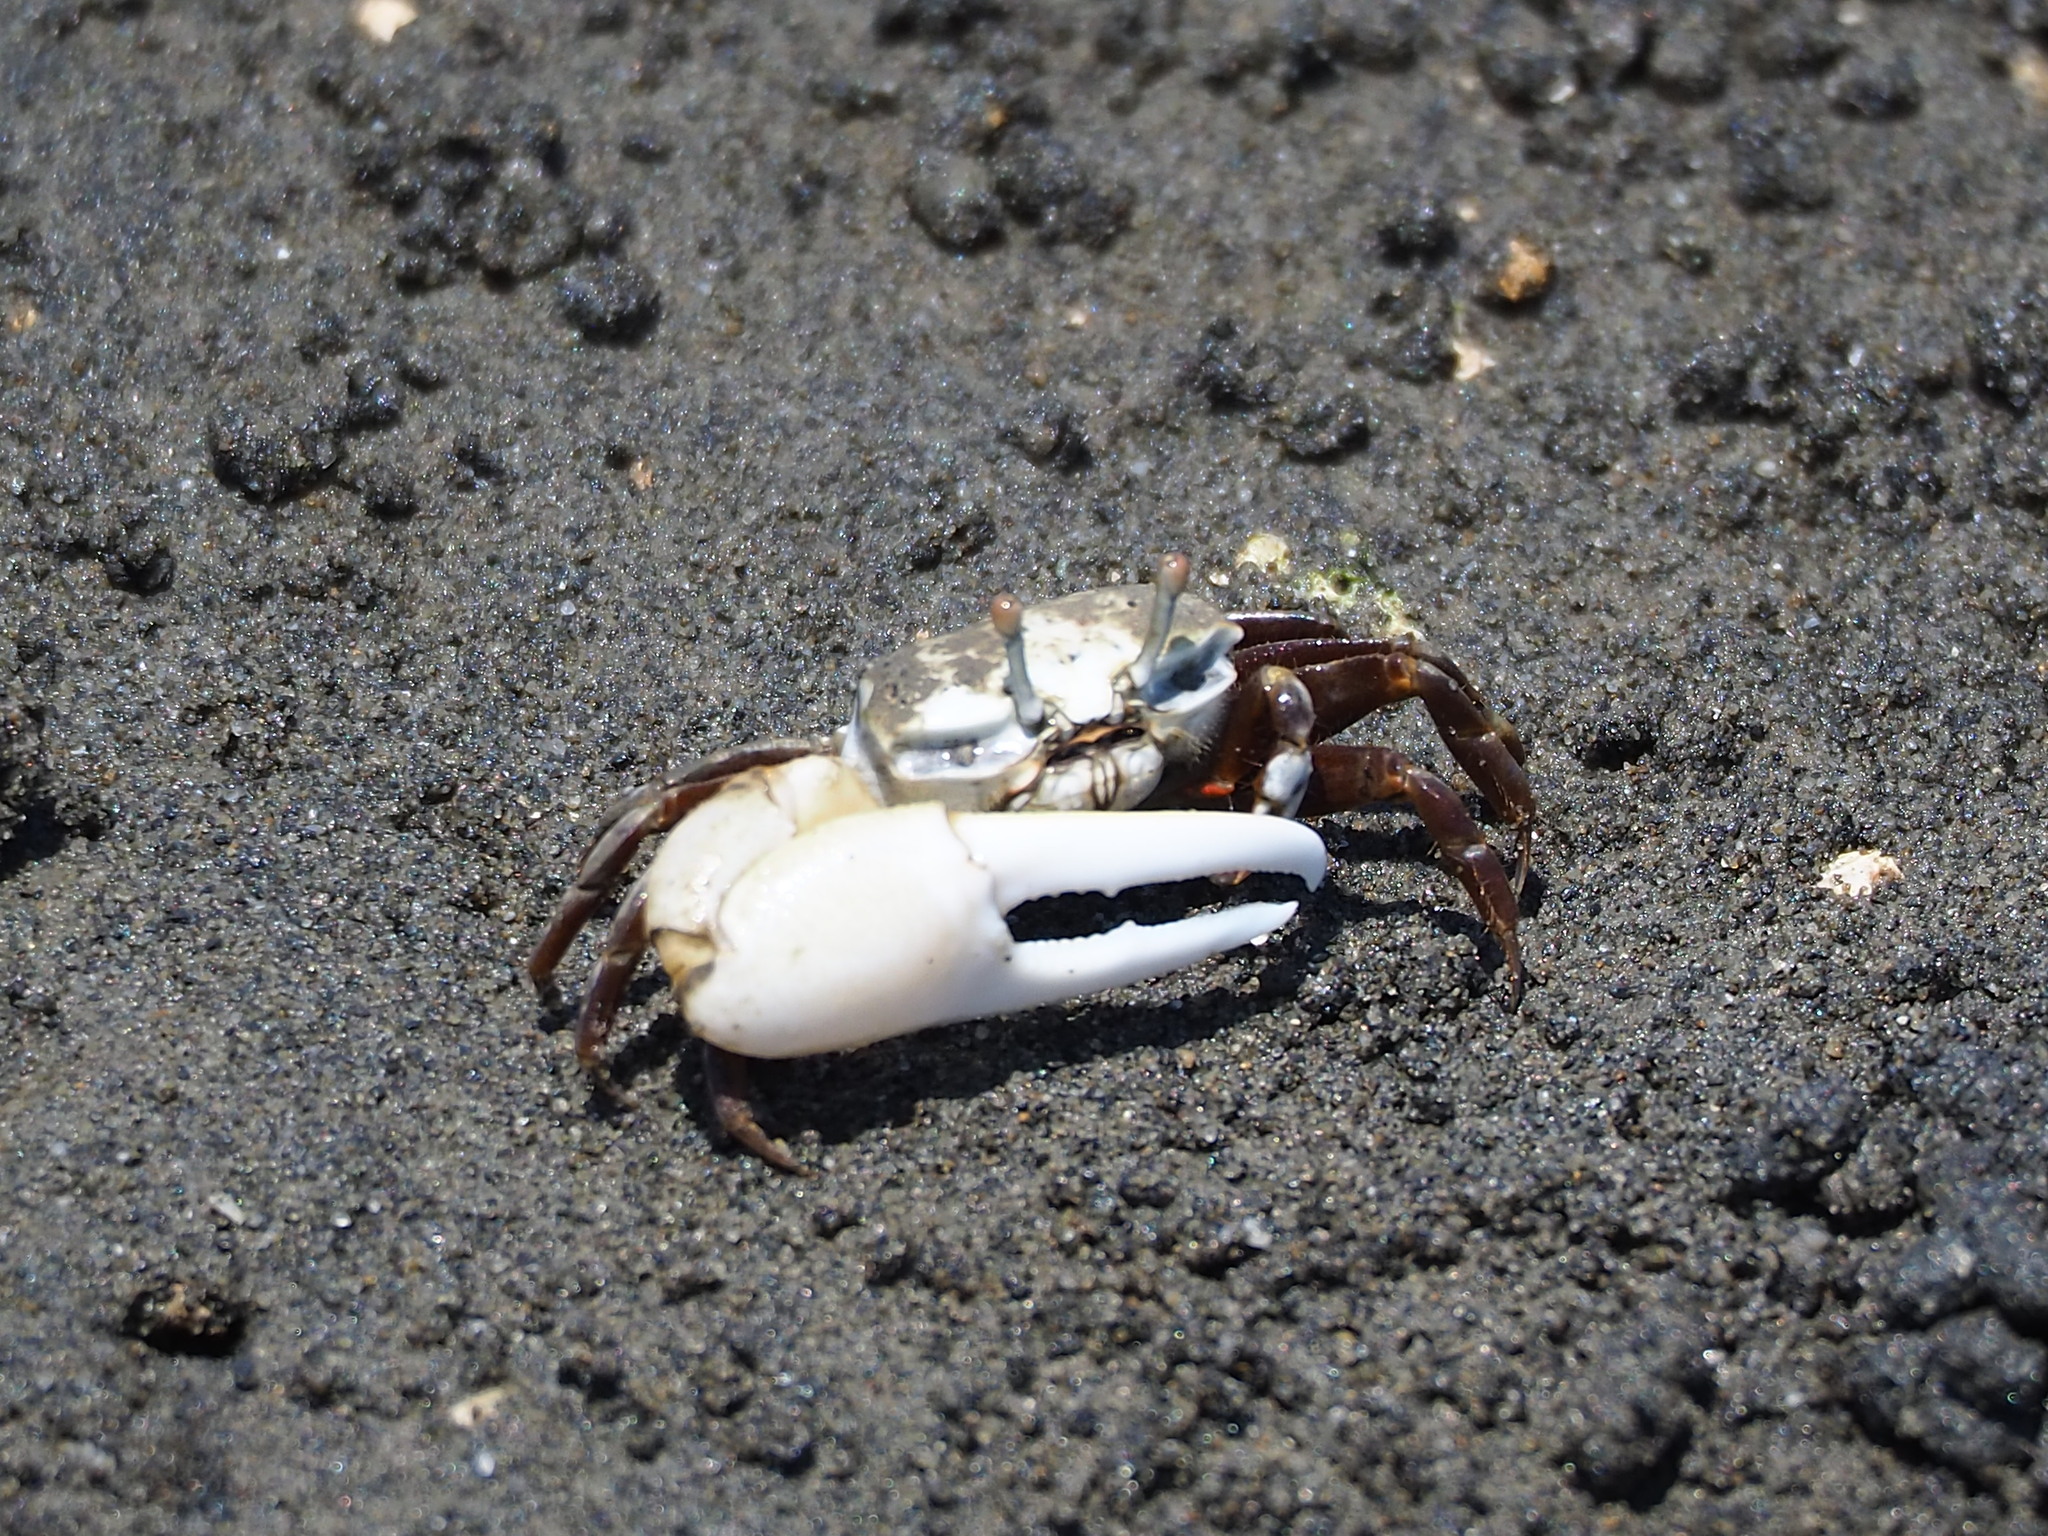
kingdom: Animalia
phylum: Arthropoda
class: Malacostraca
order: Decapoda
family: Ocypodidae
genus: Austruca
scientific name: Austruca lactea
